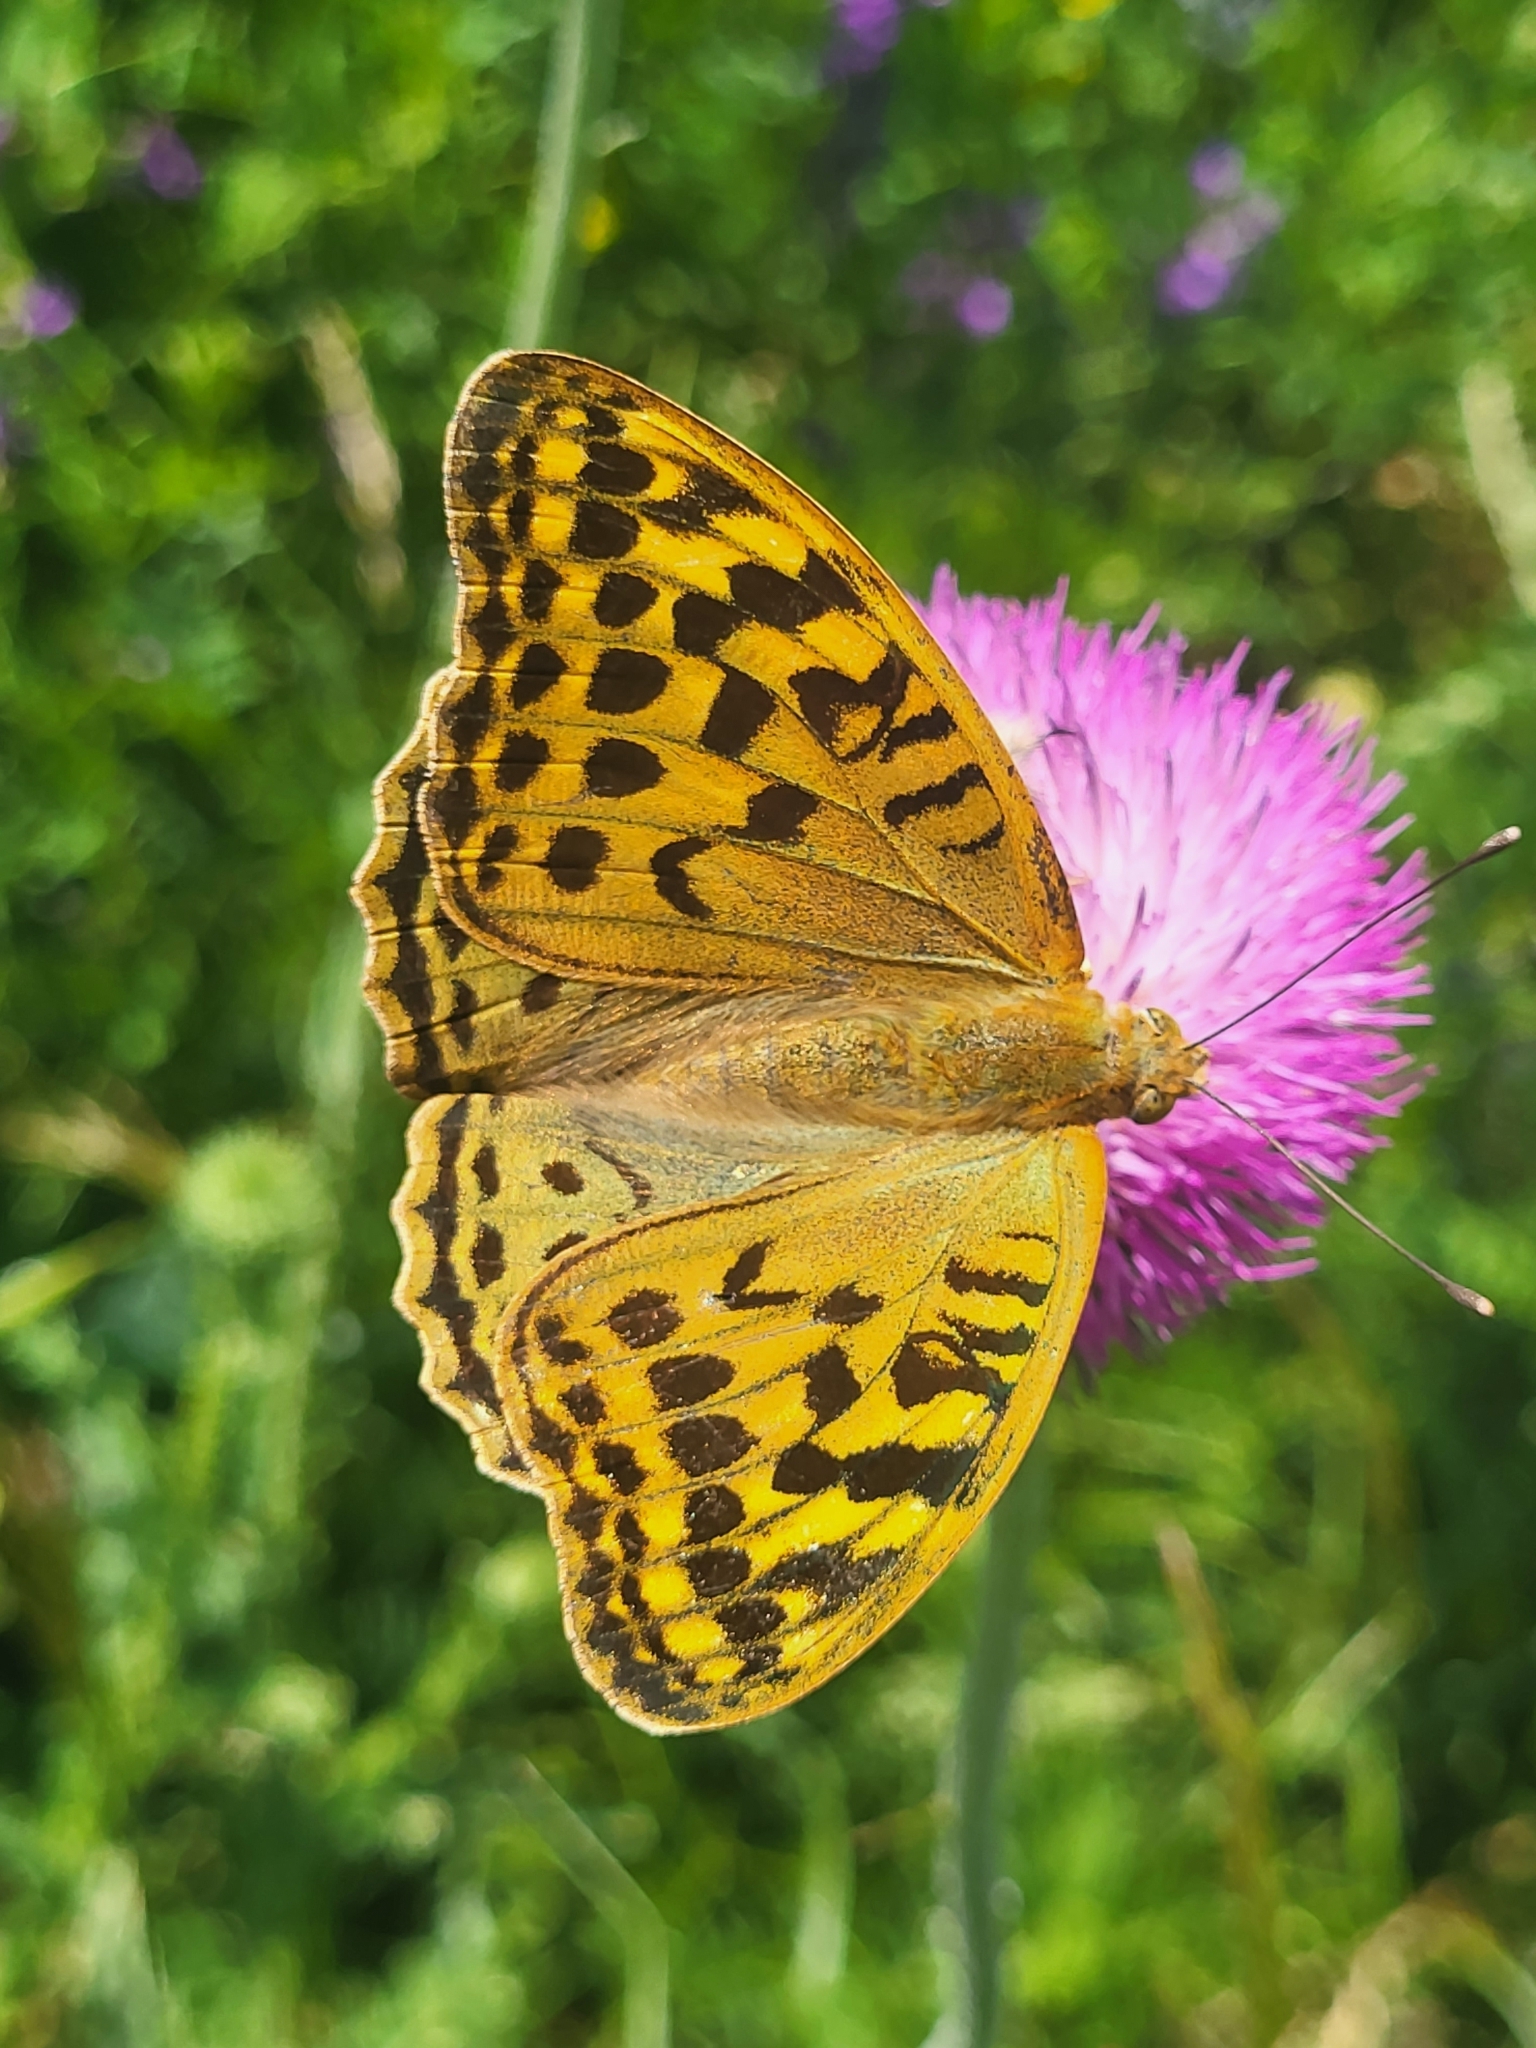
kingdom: Animalia
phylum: Arthropoda
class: Insecta
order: Lepidoptera
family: Nymphalidae
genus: Damora
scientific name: Damora pandora
